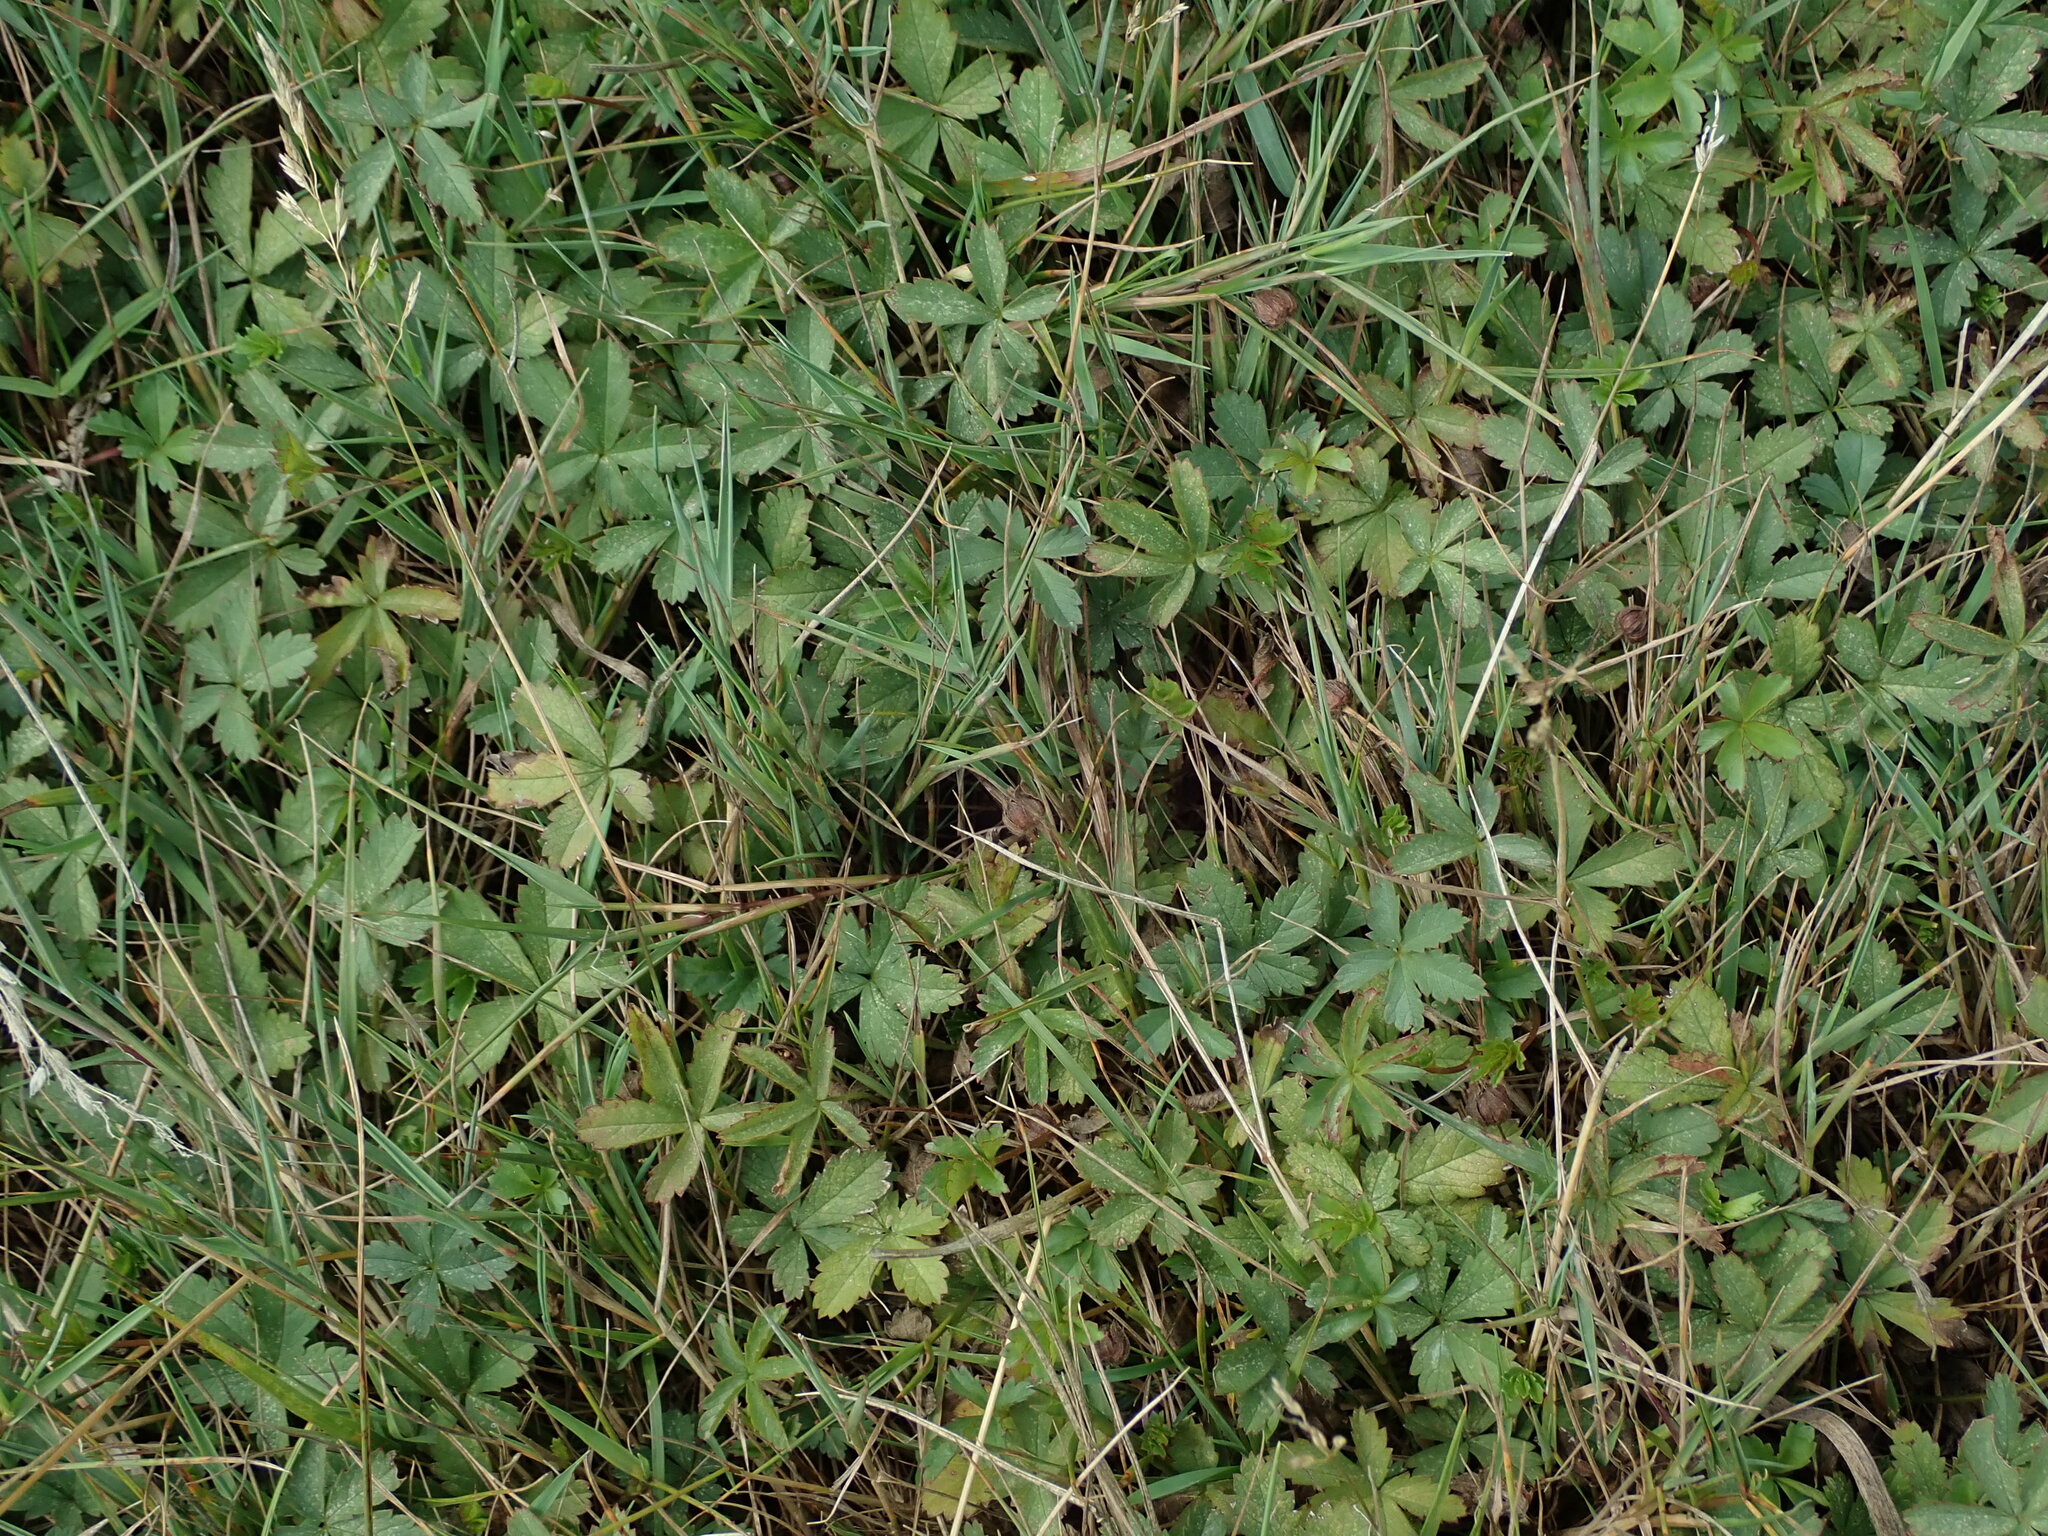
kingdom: Plantae
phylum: Tracheophyta
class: Magnoliopsida
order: Rosales
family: Rosaceae
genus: Potentilla
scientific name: Potentilla reptans
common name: Creeping cinquefoil
